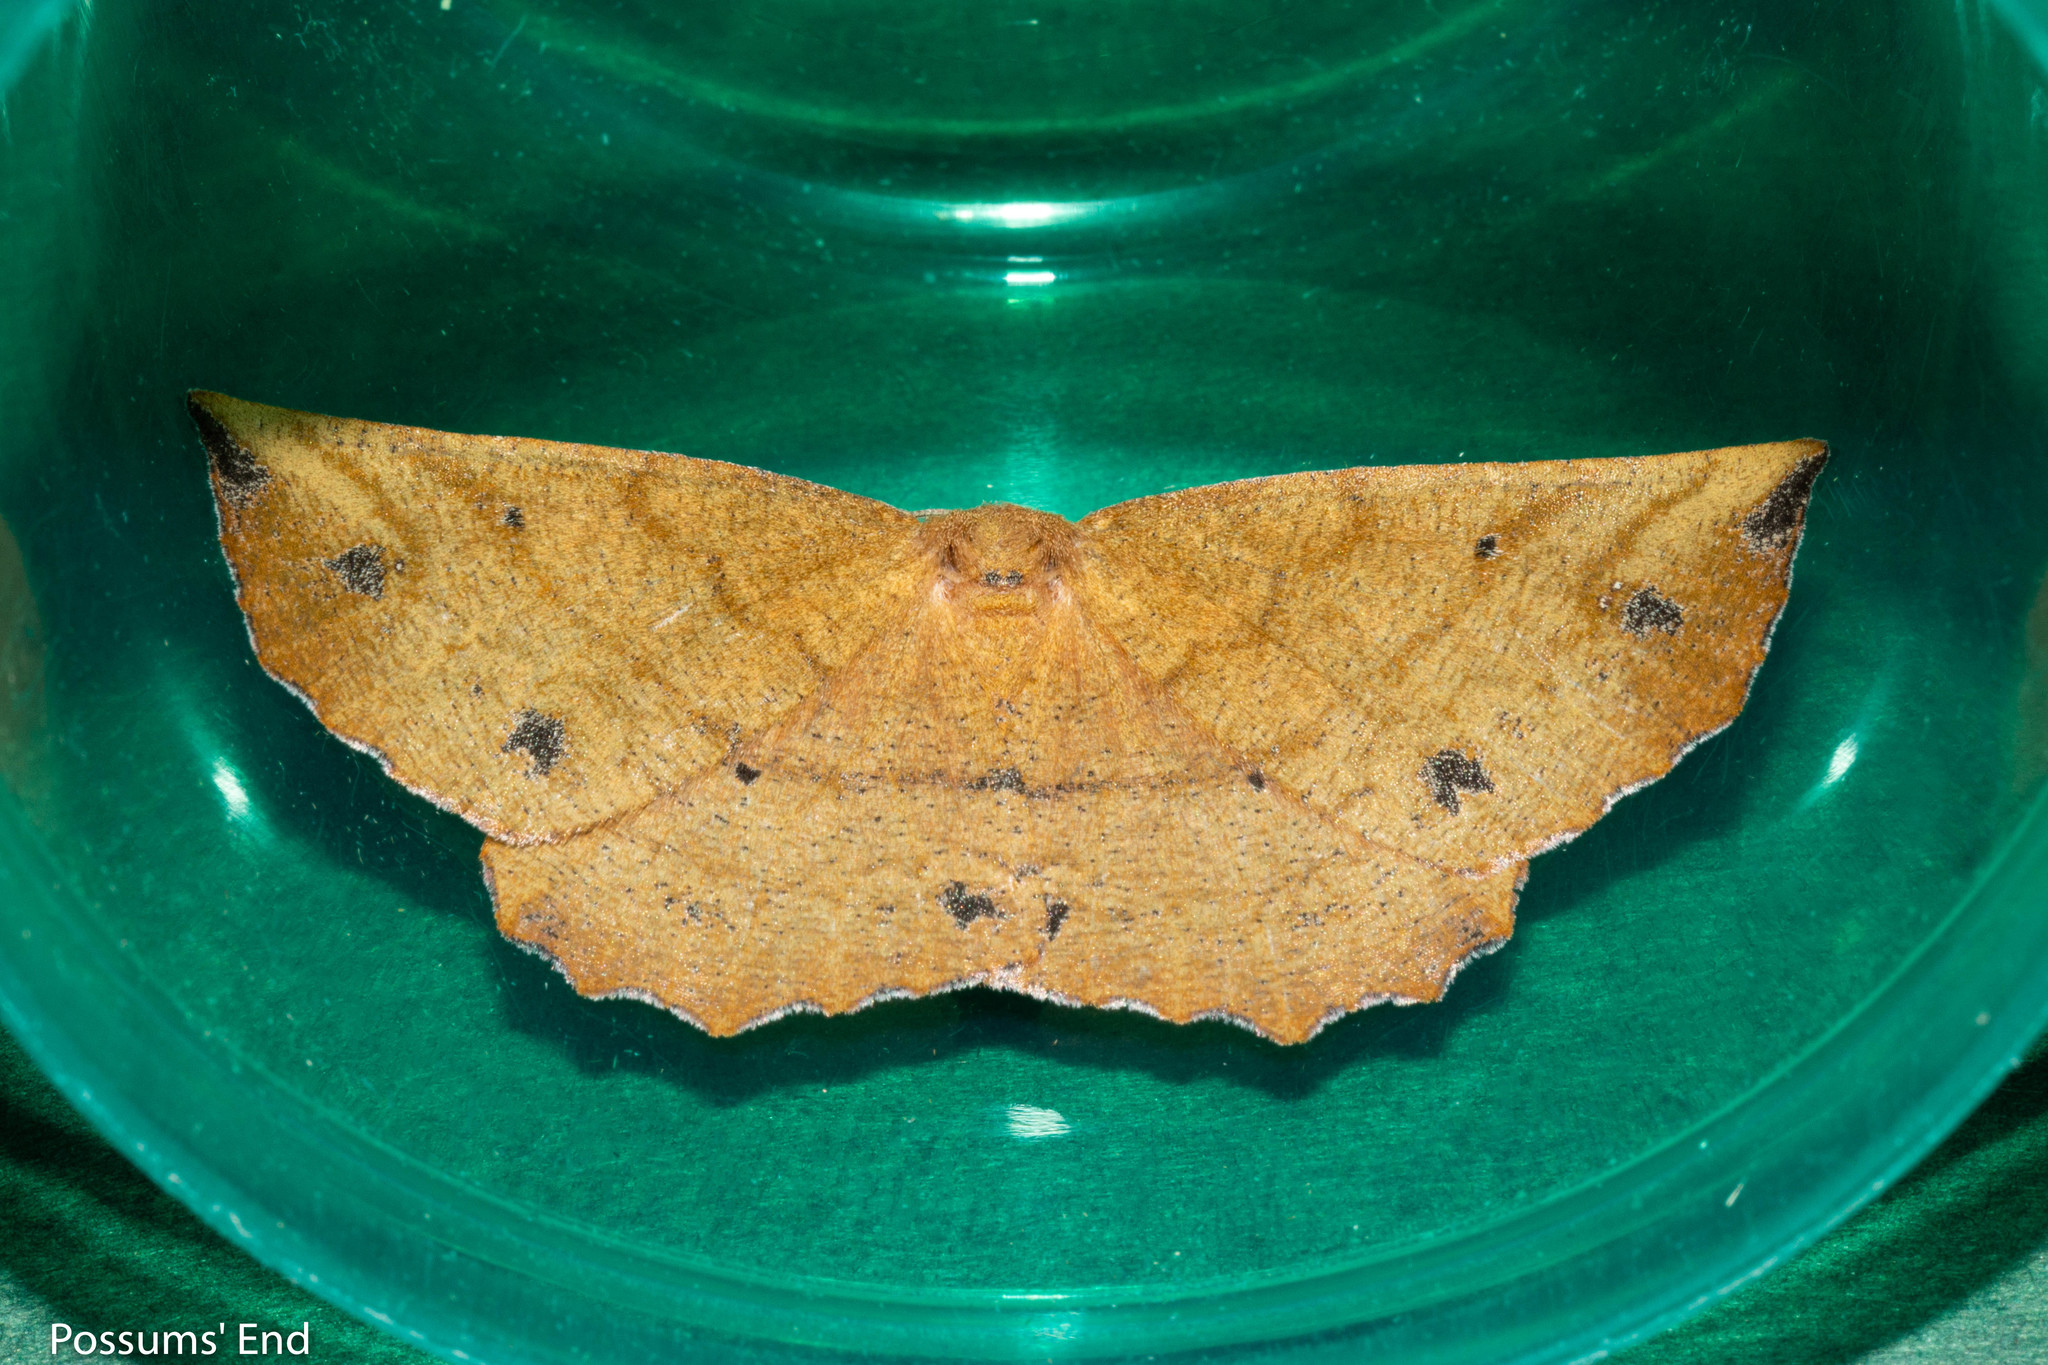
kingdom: Animalia
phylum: Arthropoda
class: Insecta
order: Lepidoptera
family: Geometridae
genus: Xyridacma
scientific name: Xyridacma alectoraria
